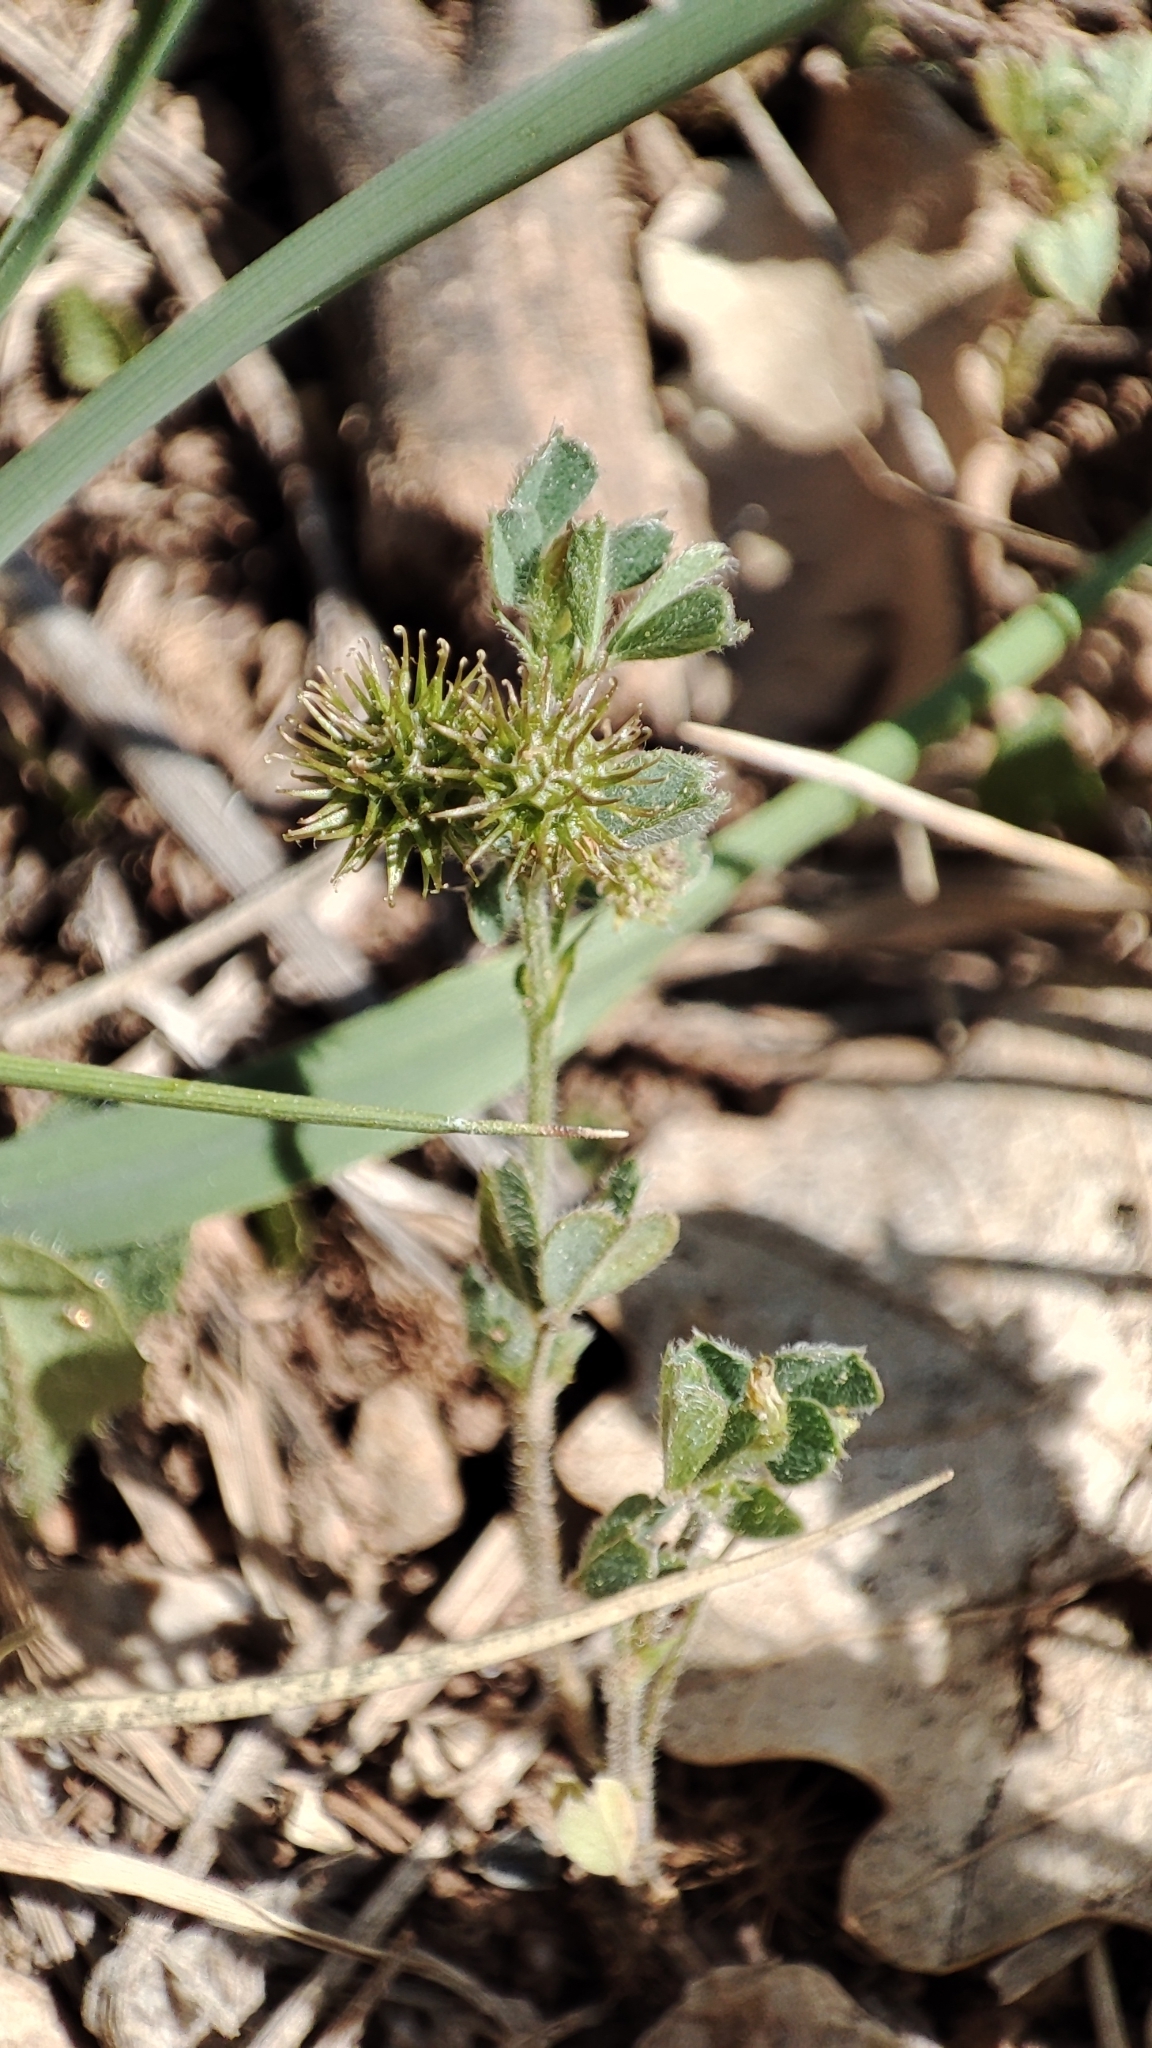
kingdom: Plantae
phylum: Tracheophyta
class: Magnoliopsida
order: Fabales
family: Fabaceae
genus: Medicago
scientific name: Medicago minima
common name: Little bur-clover
